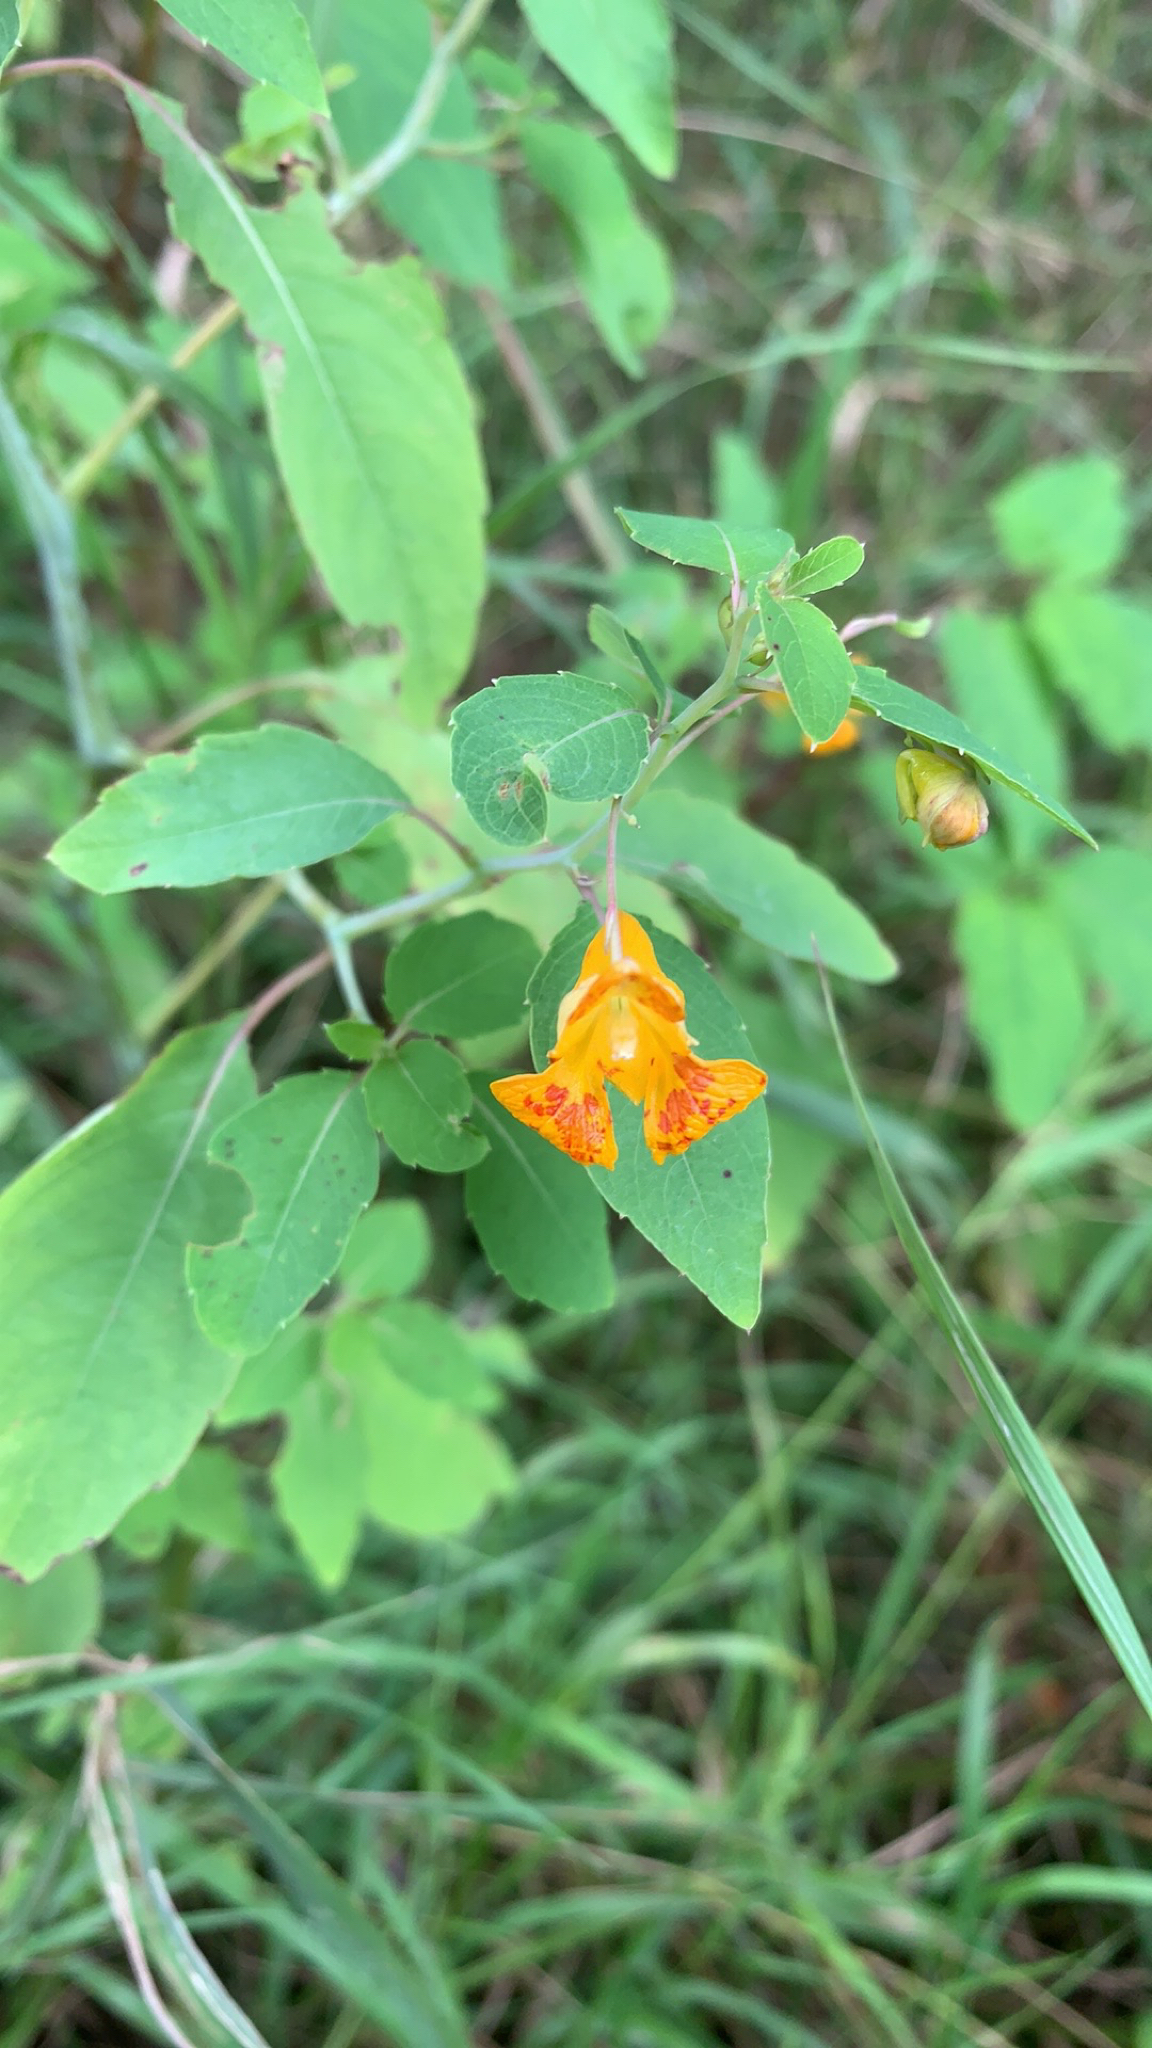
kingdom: Plantae
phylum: Tracheophyta
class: Magnoliopsida
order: Ericales
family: Balsaminaceae
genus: Impatiens
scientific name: Impatiens capensis
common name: Orange balsam
